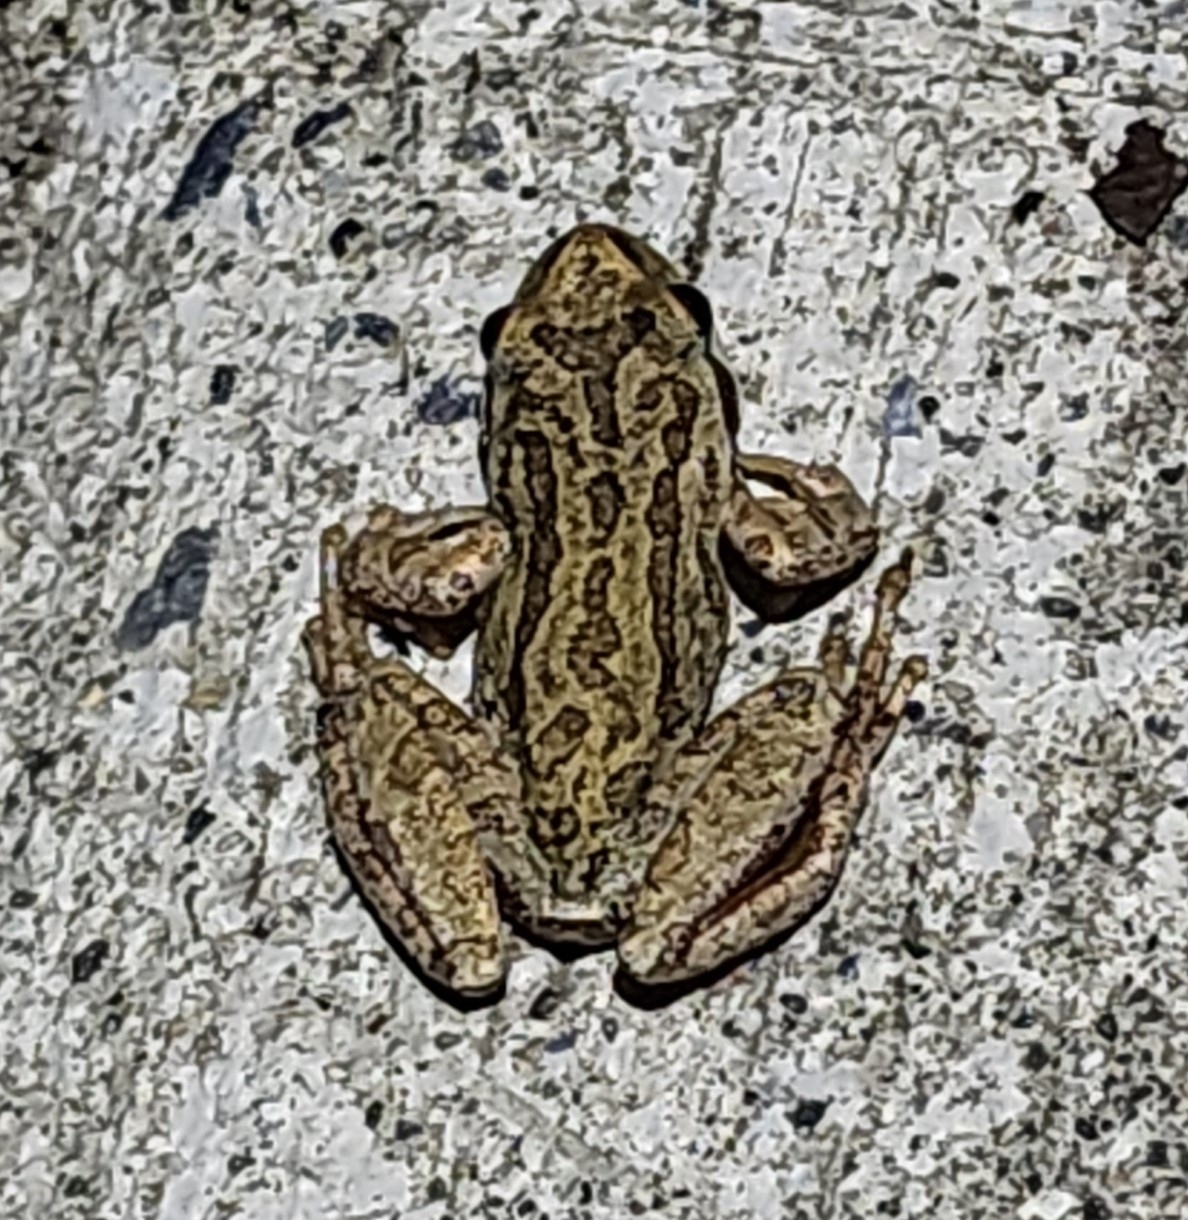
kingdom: Animalia
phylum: Chordata
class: Amphibia
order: Anura
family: Hylidae
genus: Pseudacris
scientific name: Pseudacris regilla
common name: Pacific chorus frog
